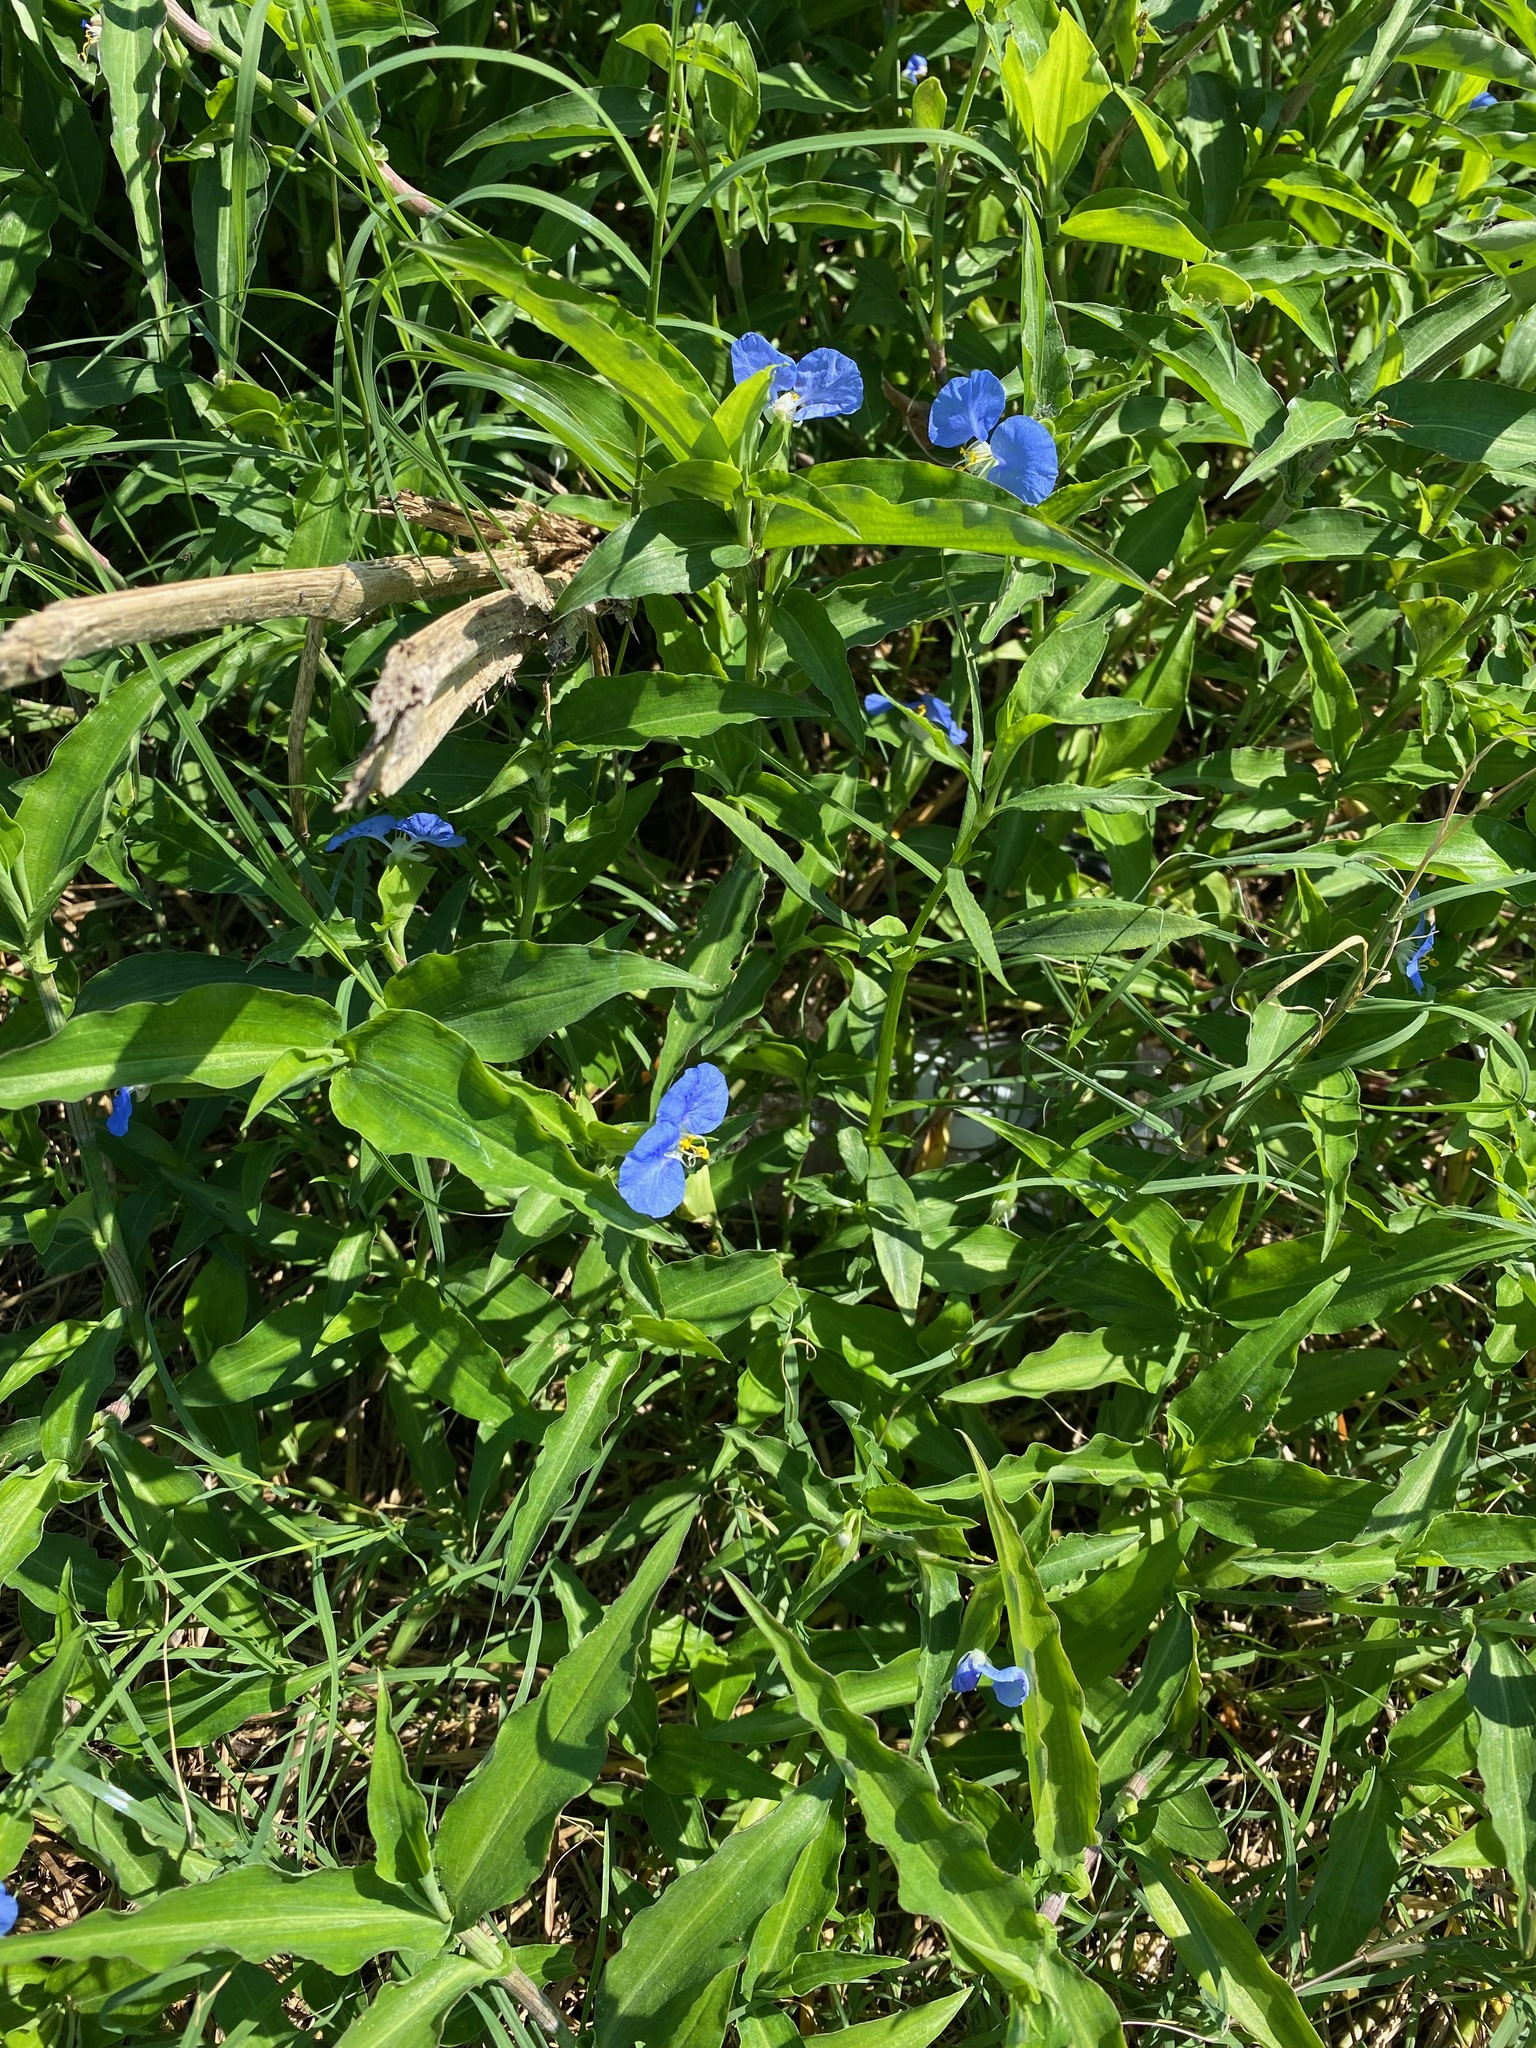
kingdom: Plantae
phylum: Tracheophyta
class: Liliopsida
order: Commelinales
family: Commelinaceae
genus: Commelina
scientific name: Commelina erecta
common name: Blousel blommetjie
